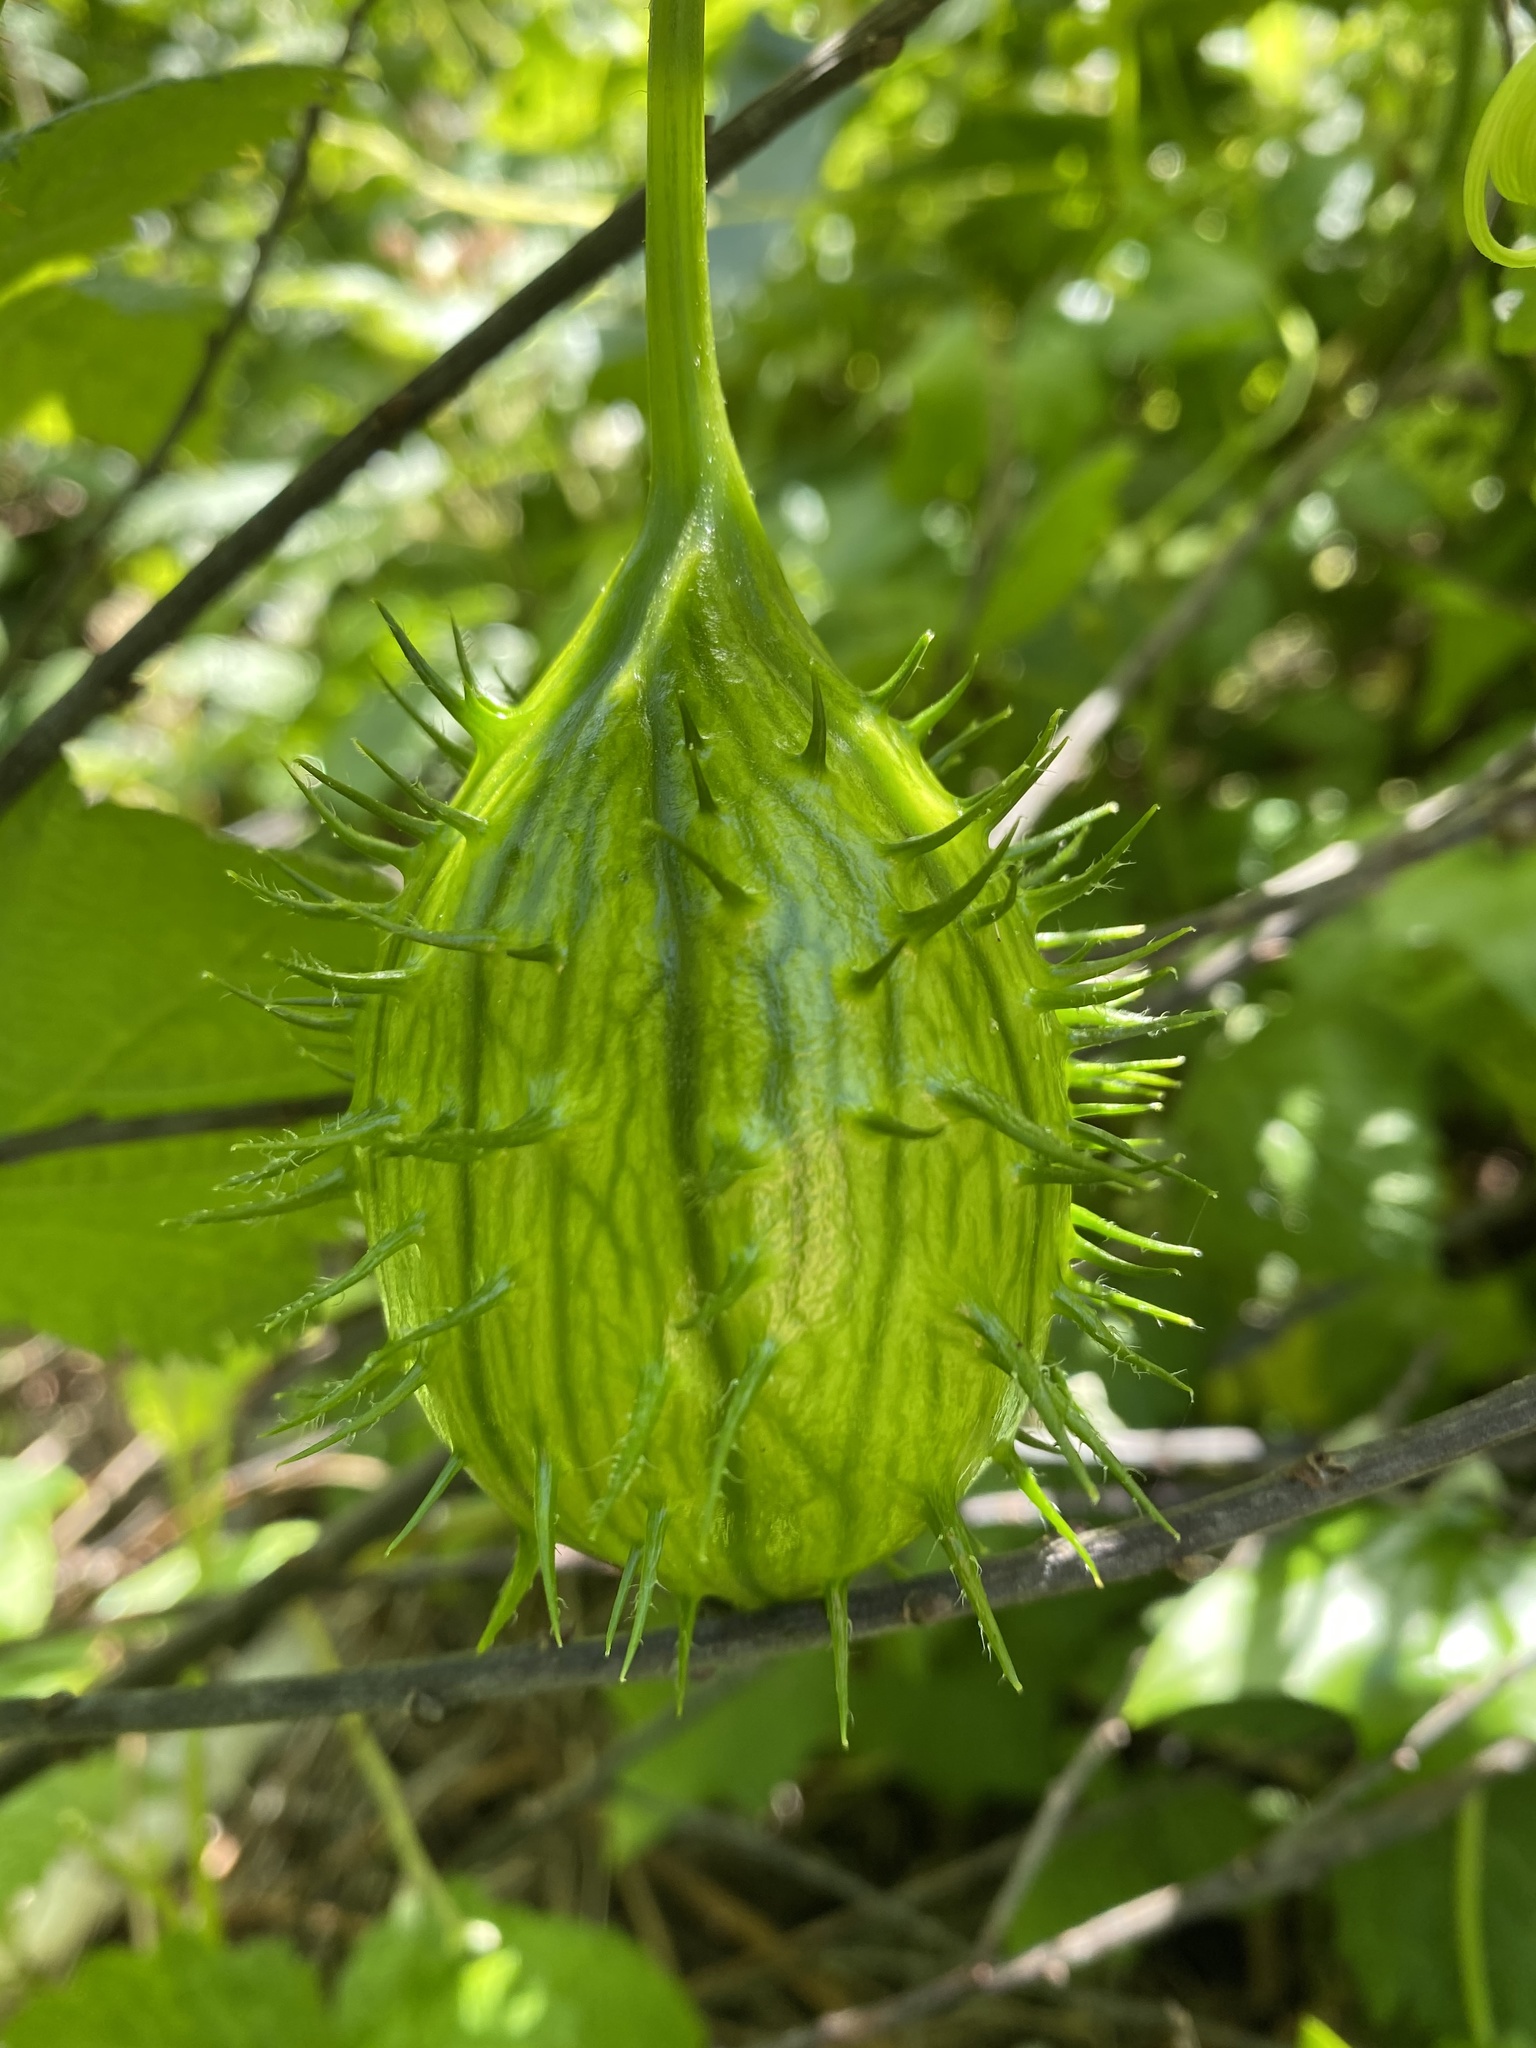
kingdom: Plantae
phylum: Tracheophyta
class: Magnoliopsida
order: Cucurbitales
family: Cucurbitaceae
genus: Marah
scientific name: Marah oregana
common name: Coastal manroot
